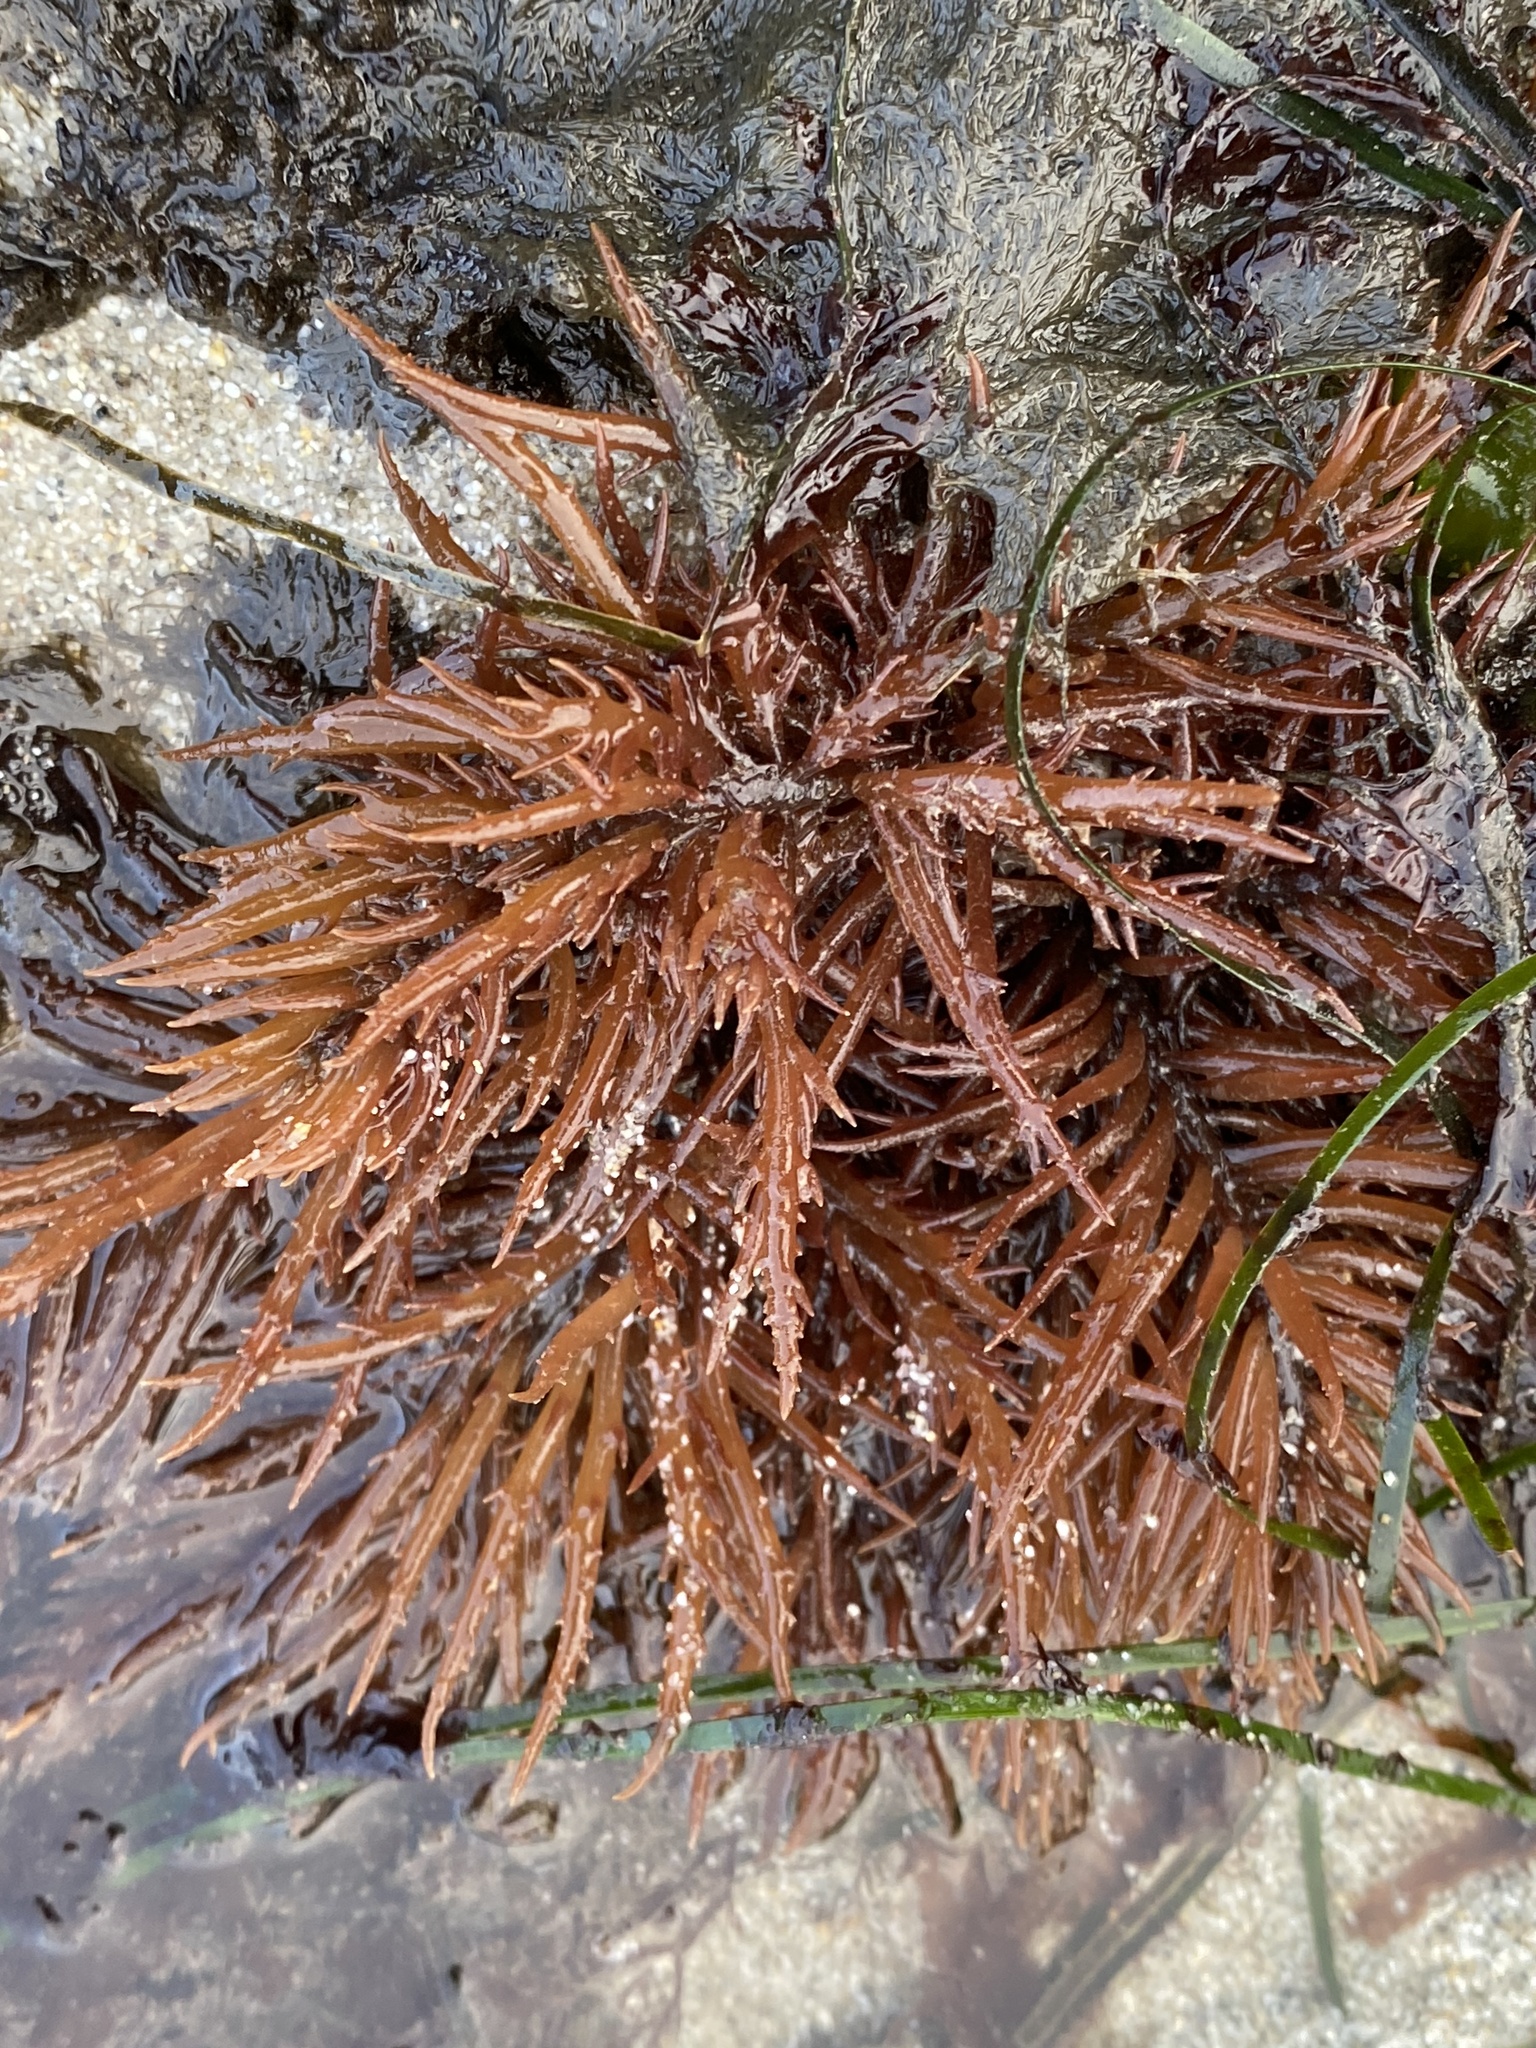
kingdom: Plantae
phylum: Rhodophyta
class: Florideophyceae
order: Gigartinales
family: Solieriaceae
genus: Sarcodiotheca
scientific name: Sarcodiotheca gaudichaudii
